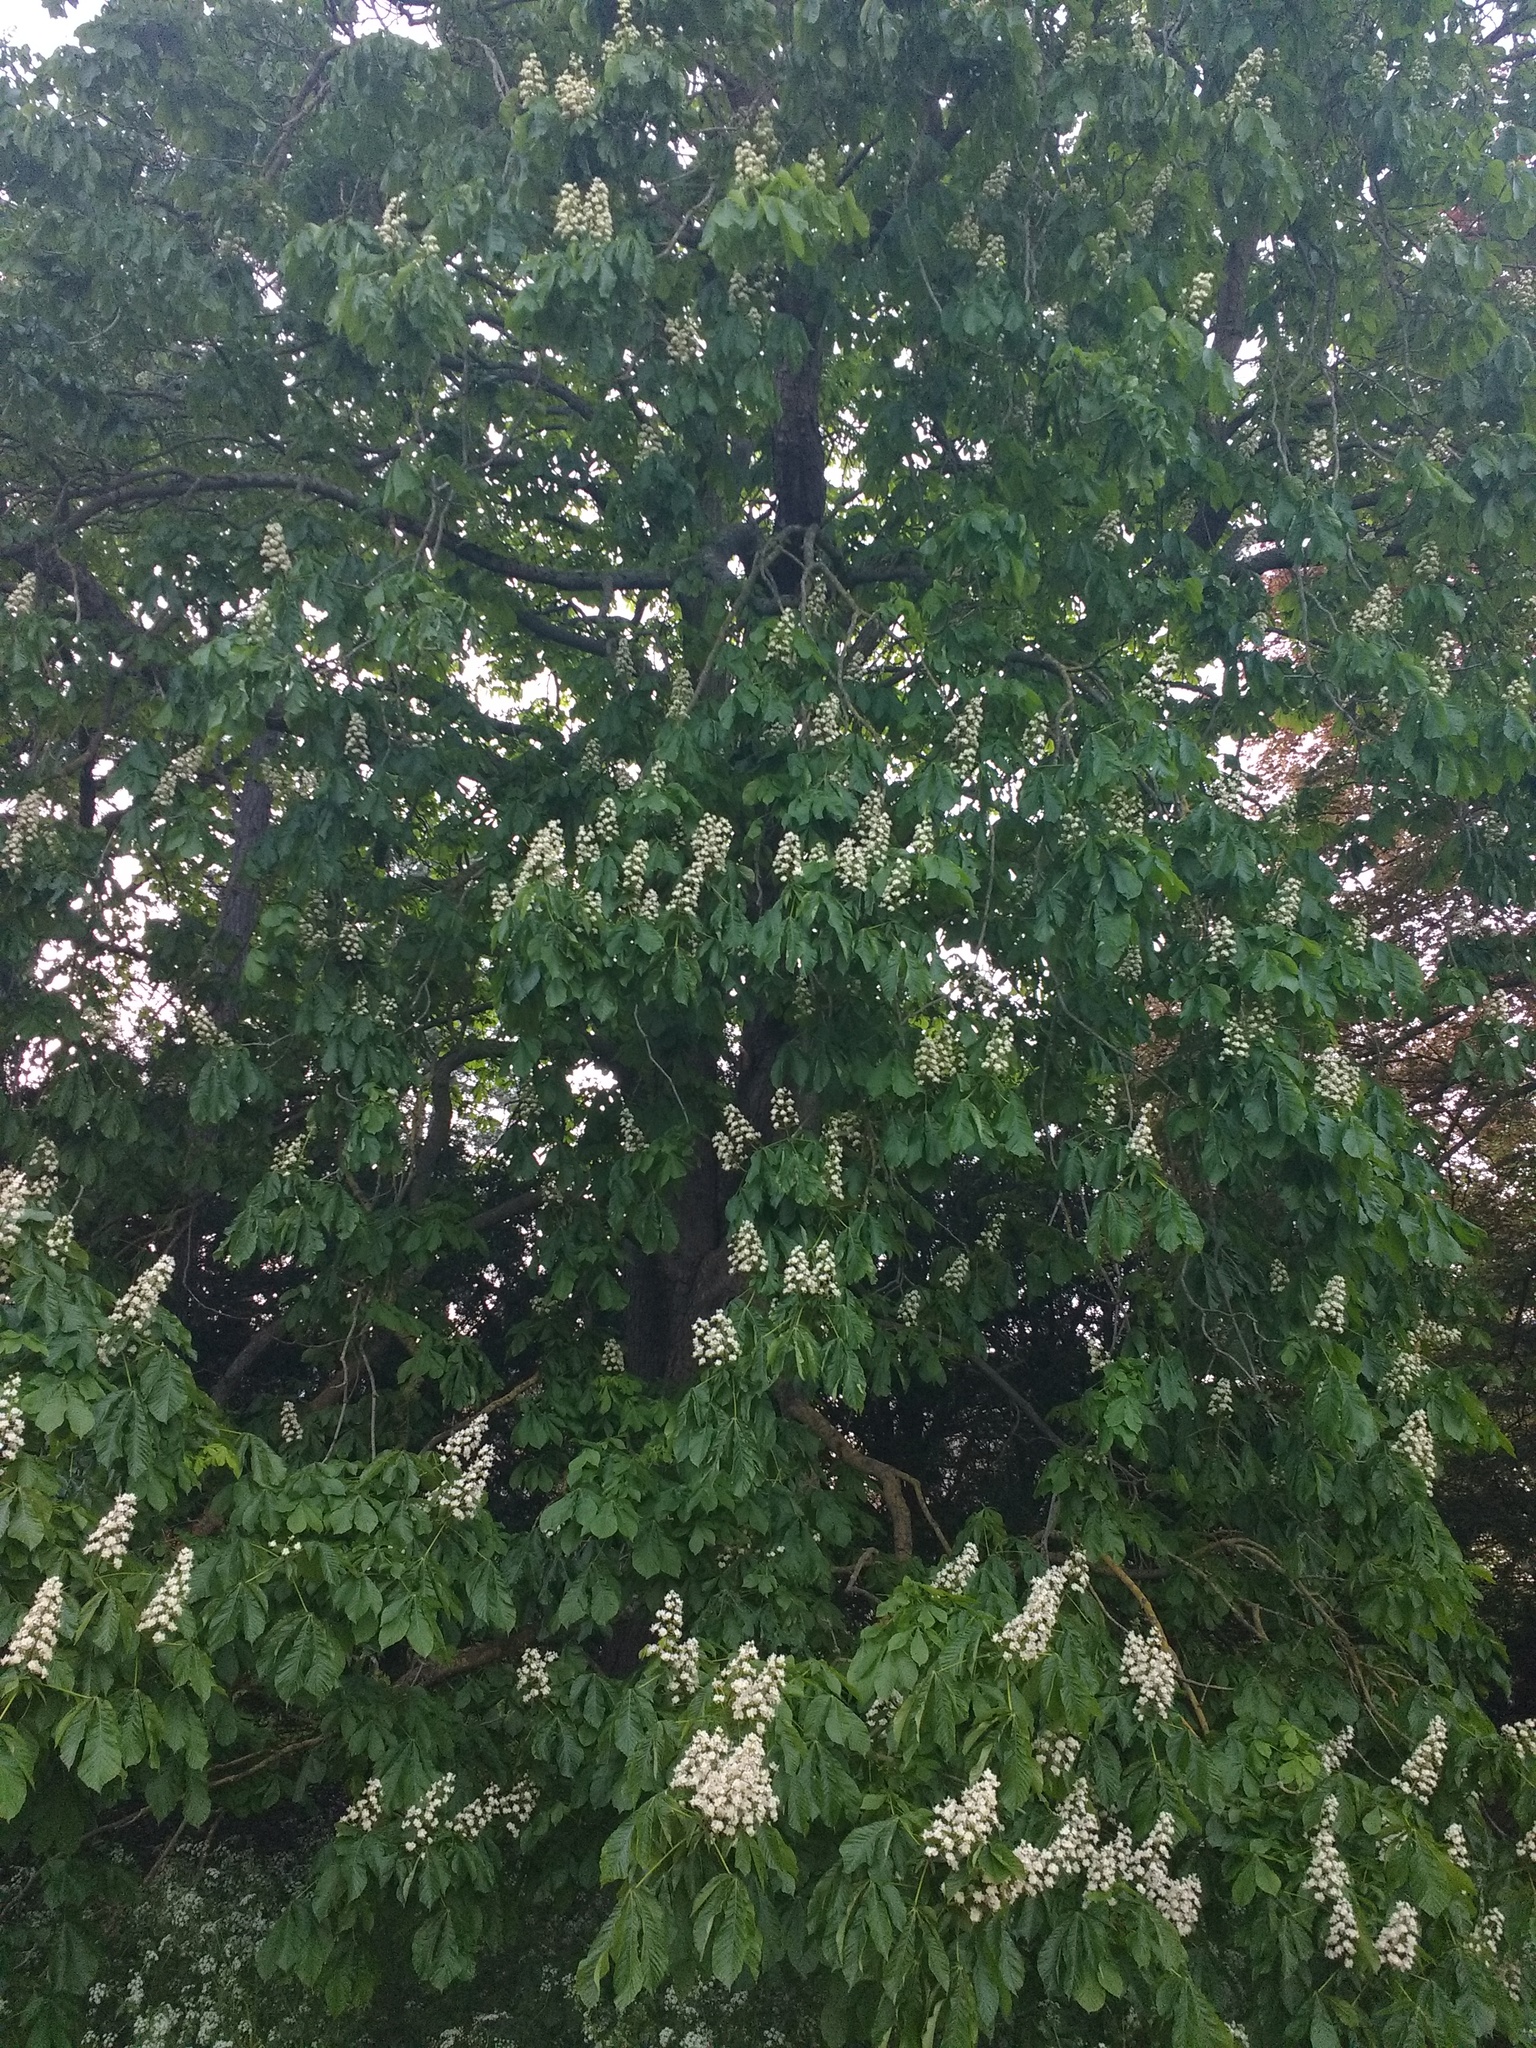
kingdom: Plantae
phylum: Tracheophyta
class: Magnoliopsida
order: Sapindales
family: Sapindaceae
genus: Aesculus
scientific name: Aesculus hippocastanum
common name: Horse-chestnut
